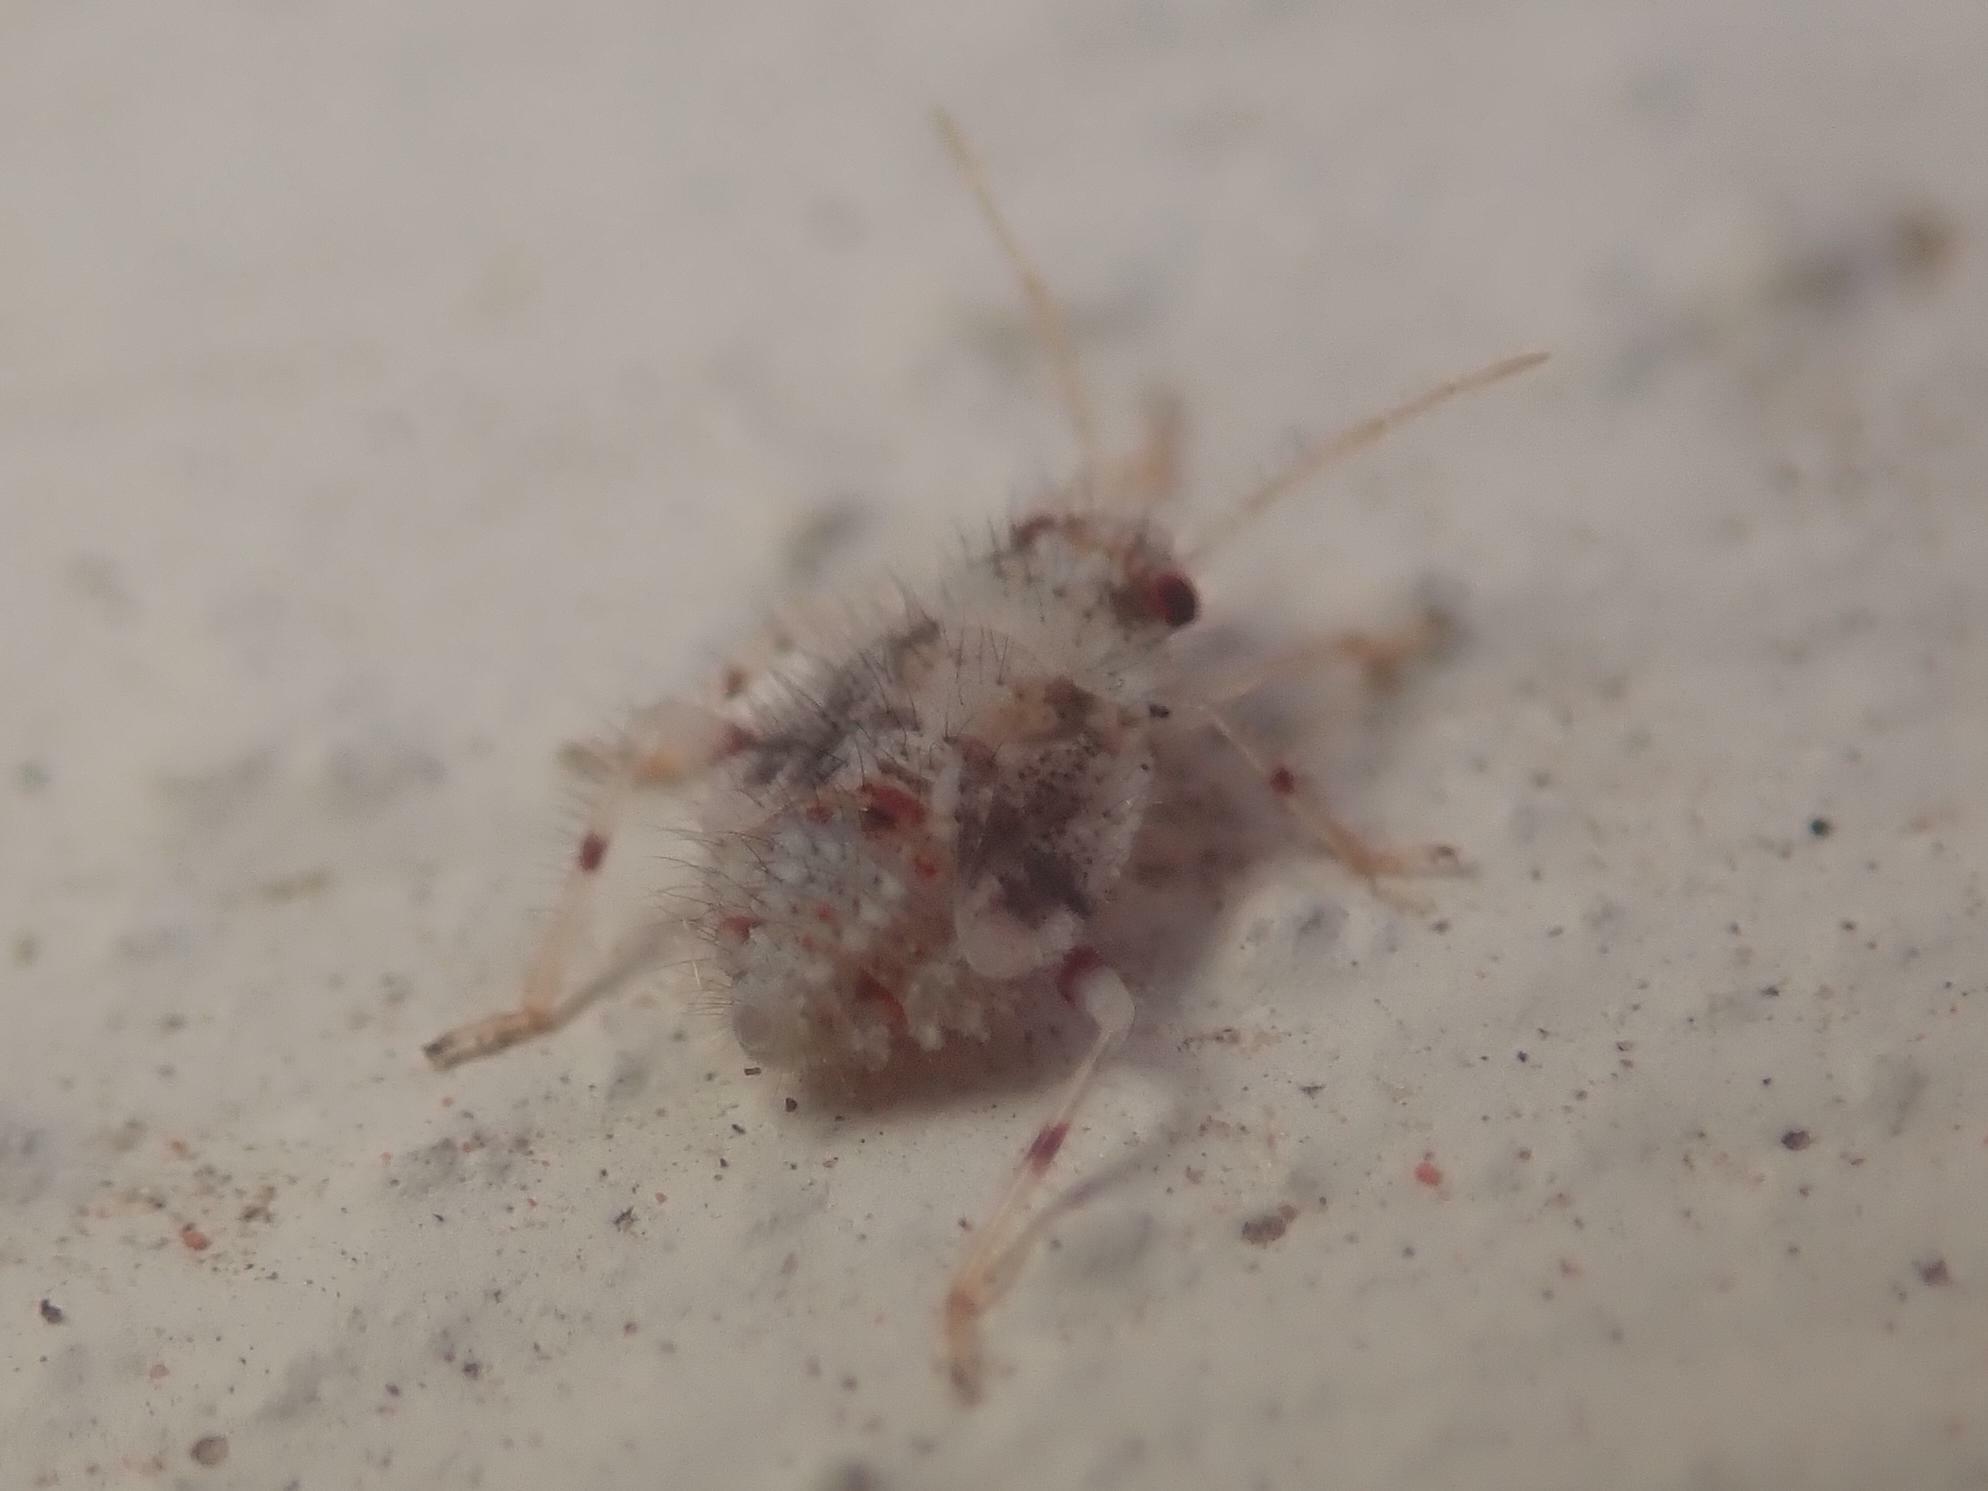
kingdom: Animalia
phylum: Arthropoda
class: Insecta
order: Hemiptera
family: Miridae
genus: Deraeocoris
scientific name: Deraeocoris lutescens
